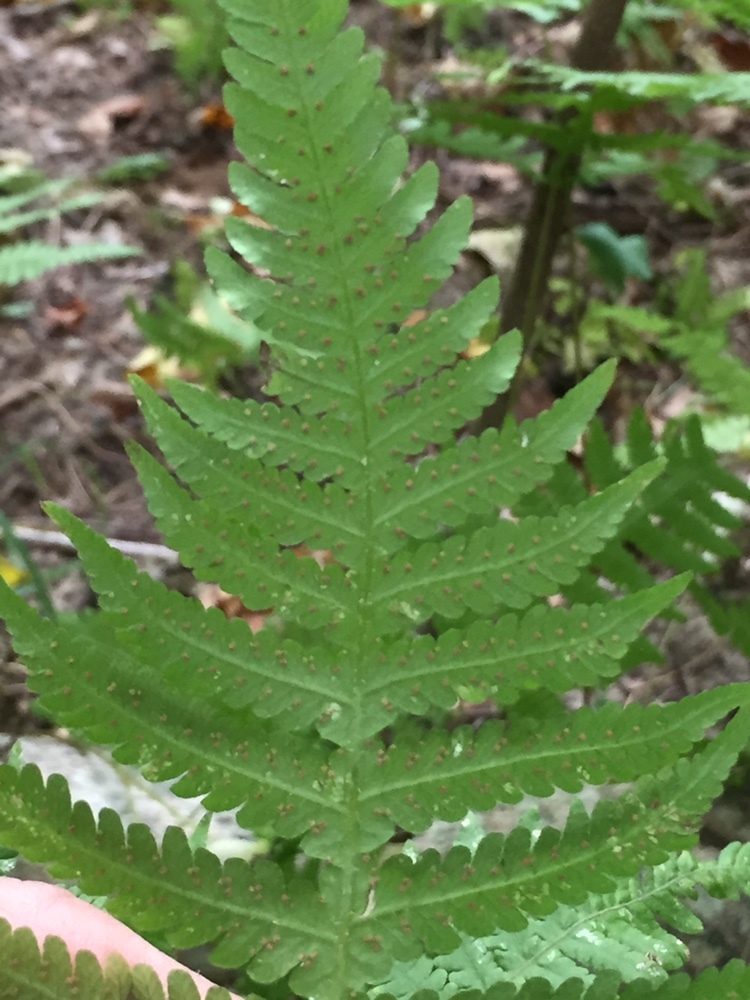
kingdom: Plantae
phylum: Tracheophyta
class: Polypodiopsida
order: Polypodiales
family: Thelypteridaceae
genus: Phegopteris
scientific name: Phegopteris hexagonoptera
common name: Broad beech fern
